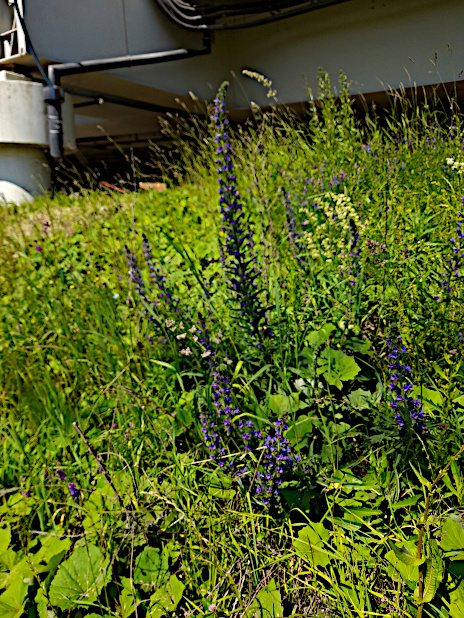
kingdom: Plantae
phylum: Tracheophyta
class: Magnoliopsida
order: Boraginales
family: Boraginaceae
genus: Echium
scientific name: Echium vulgare
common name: Common viper's bugloss
